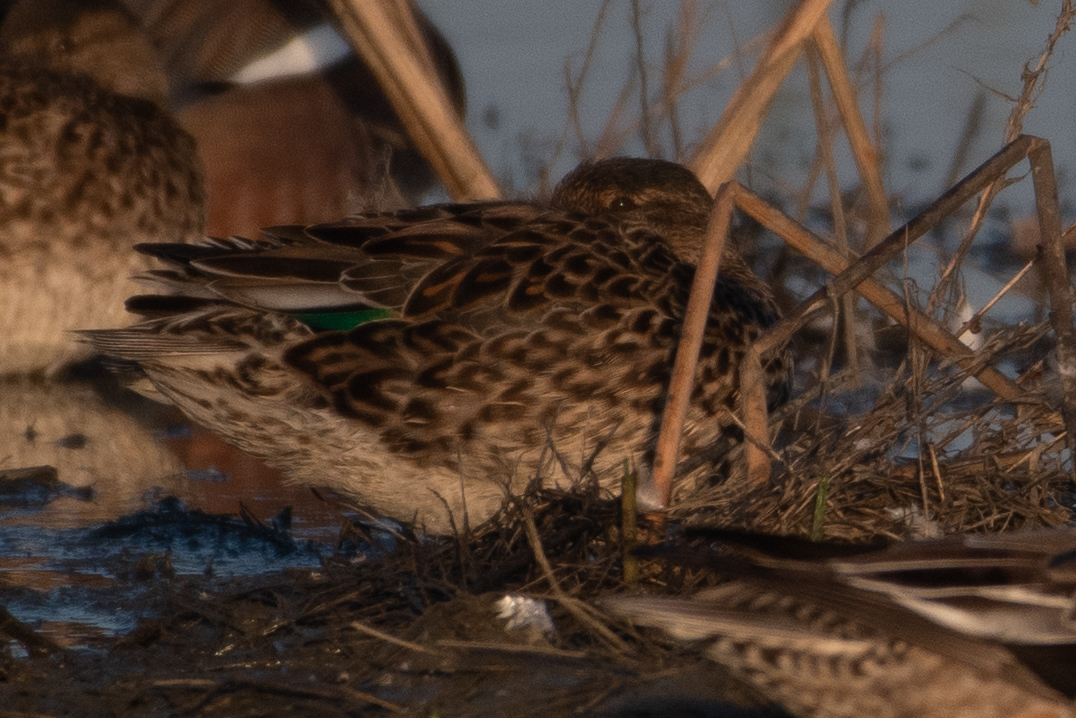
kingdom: Animalia
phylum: Chordata
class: Aves
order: Anseriformes
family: Anatidae
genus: Anas
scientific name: Anas crecca
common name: Eurasian teal
